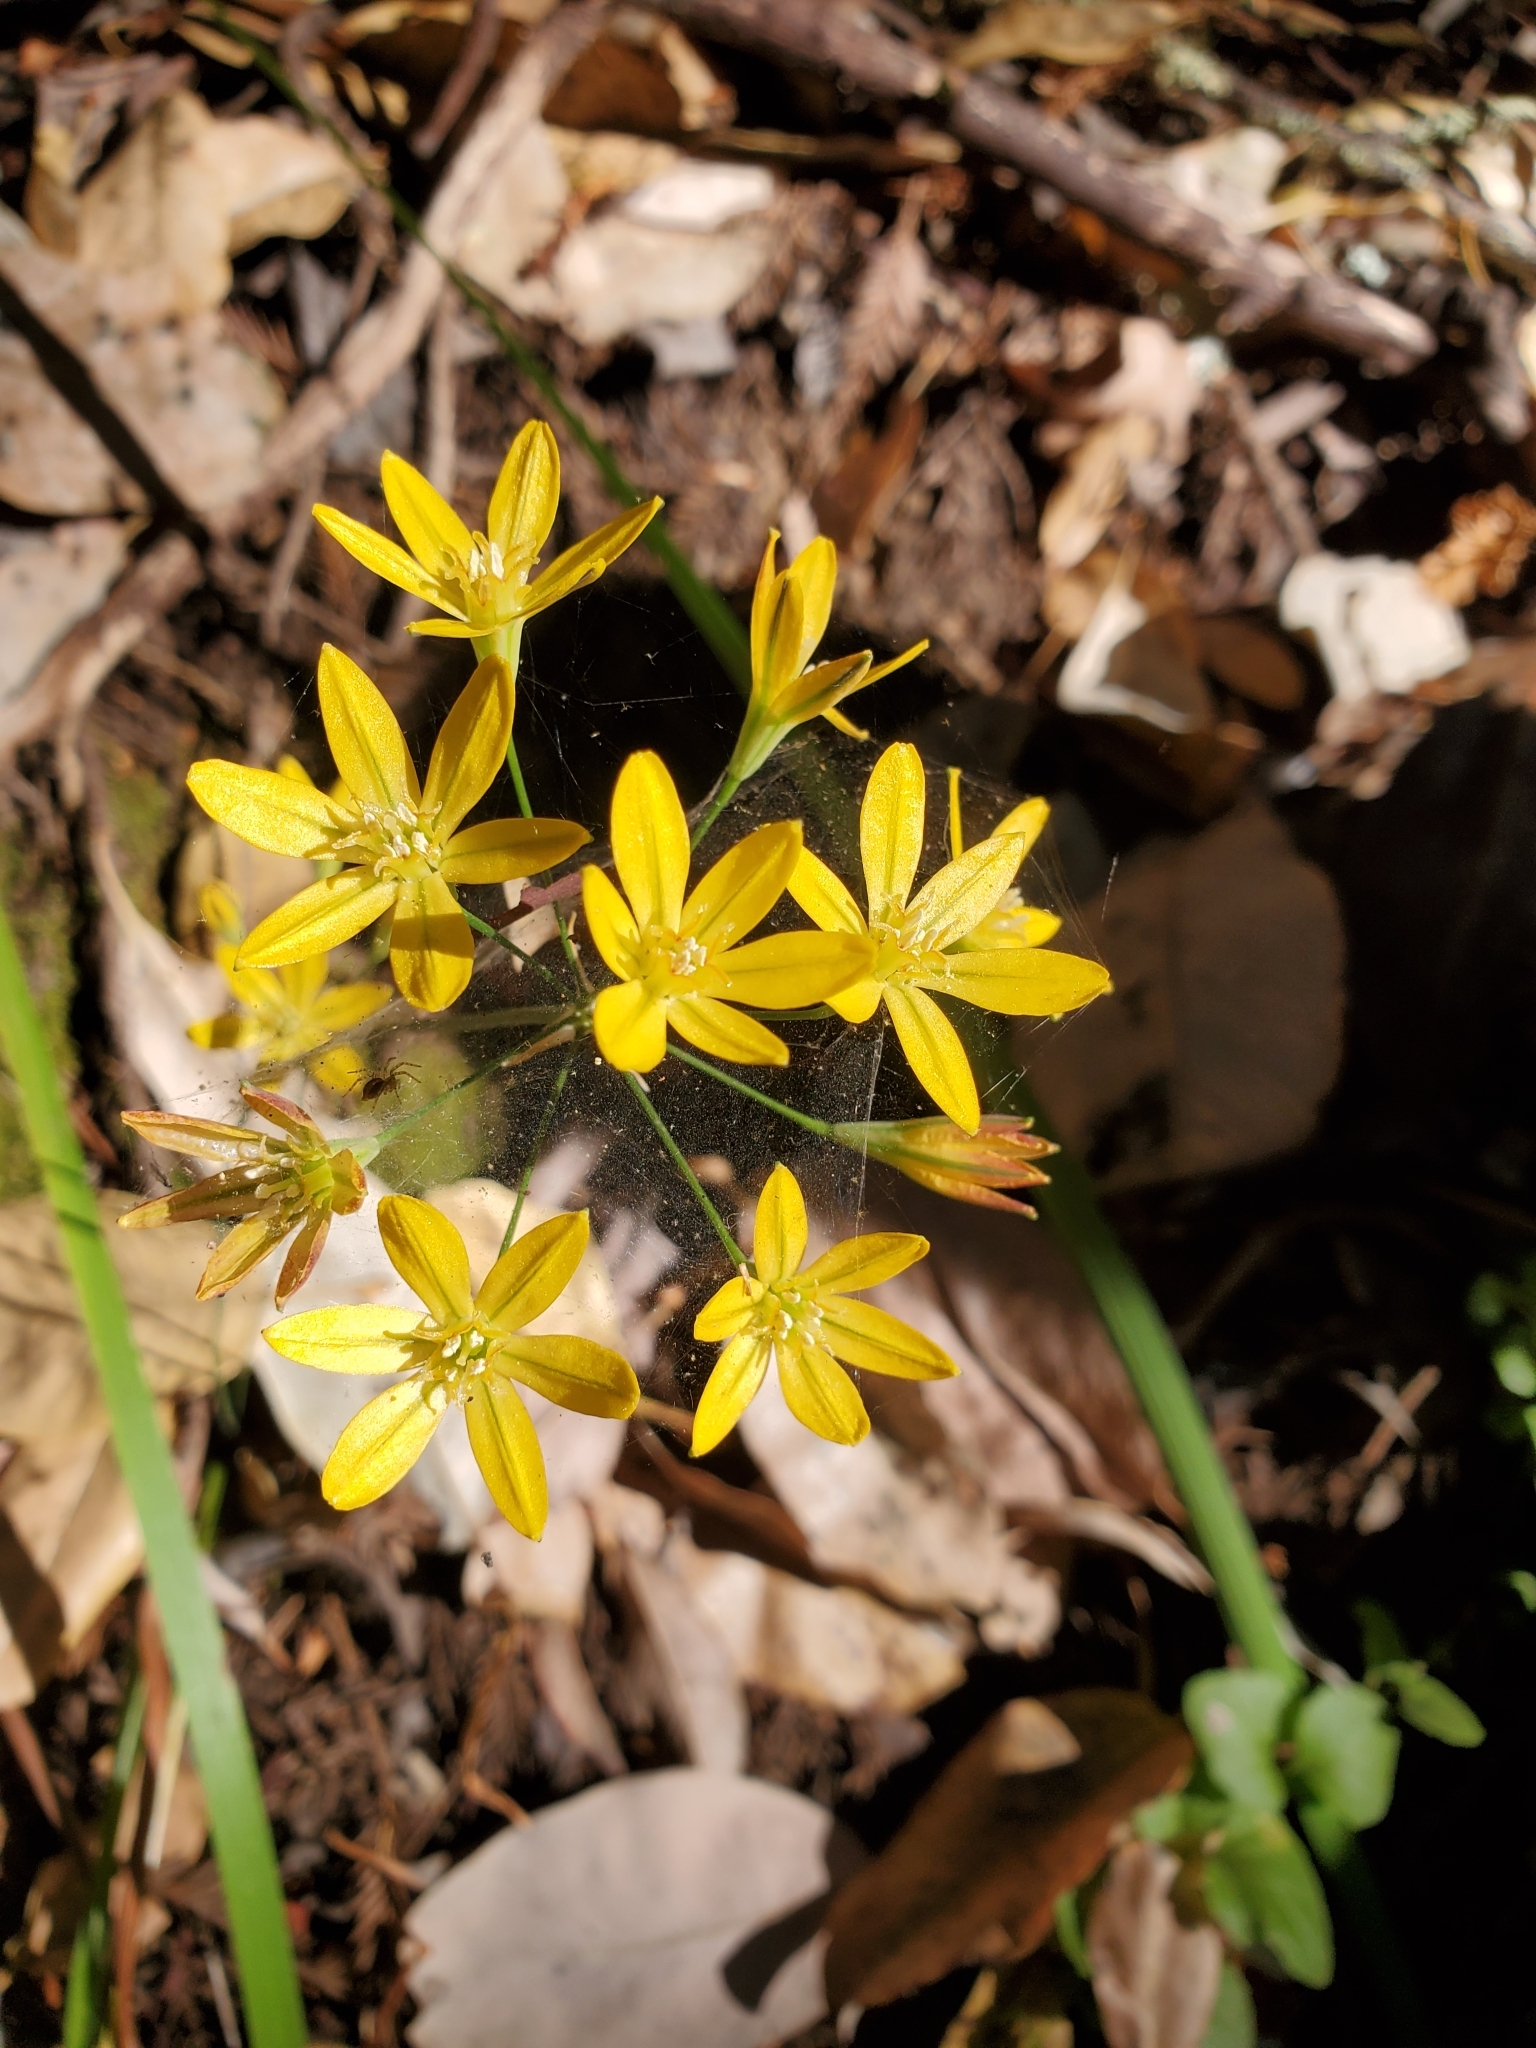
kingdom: Plantae
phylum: Tracheophyta
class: Liliopsida
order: Asparagales
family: Asparagaceae
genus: Triteleia
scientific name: Triteleia ixioides
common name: Yellow-brodiaea
